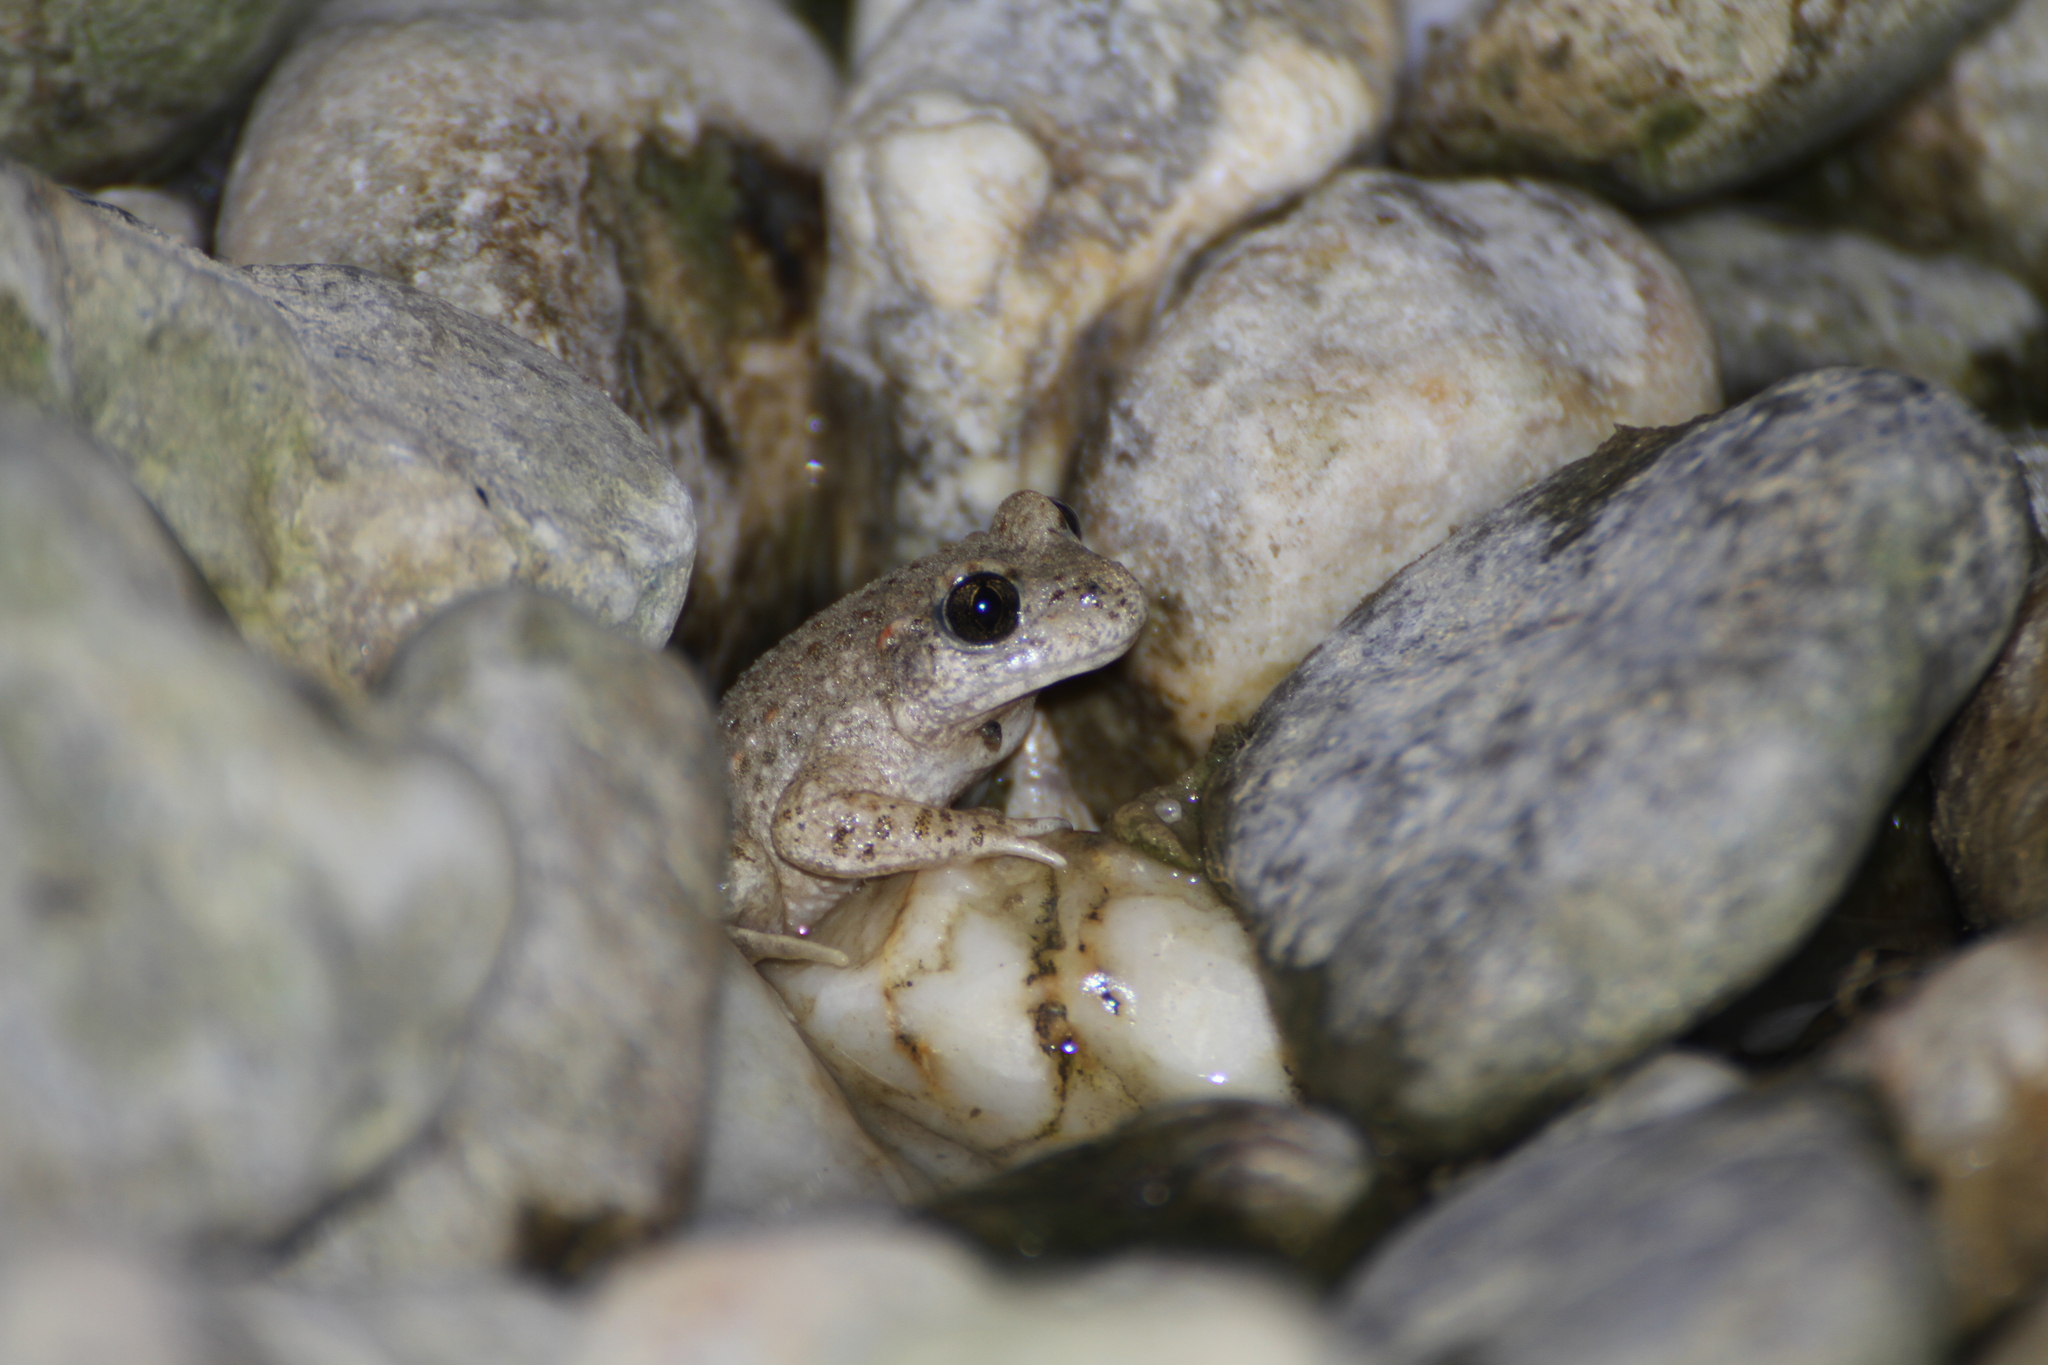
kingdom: Animalia
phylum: Chordata
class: Amphibia
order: Anura
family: Alytidae
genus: Alytes
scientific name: Alytes obstetricans
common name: Midwife toad
